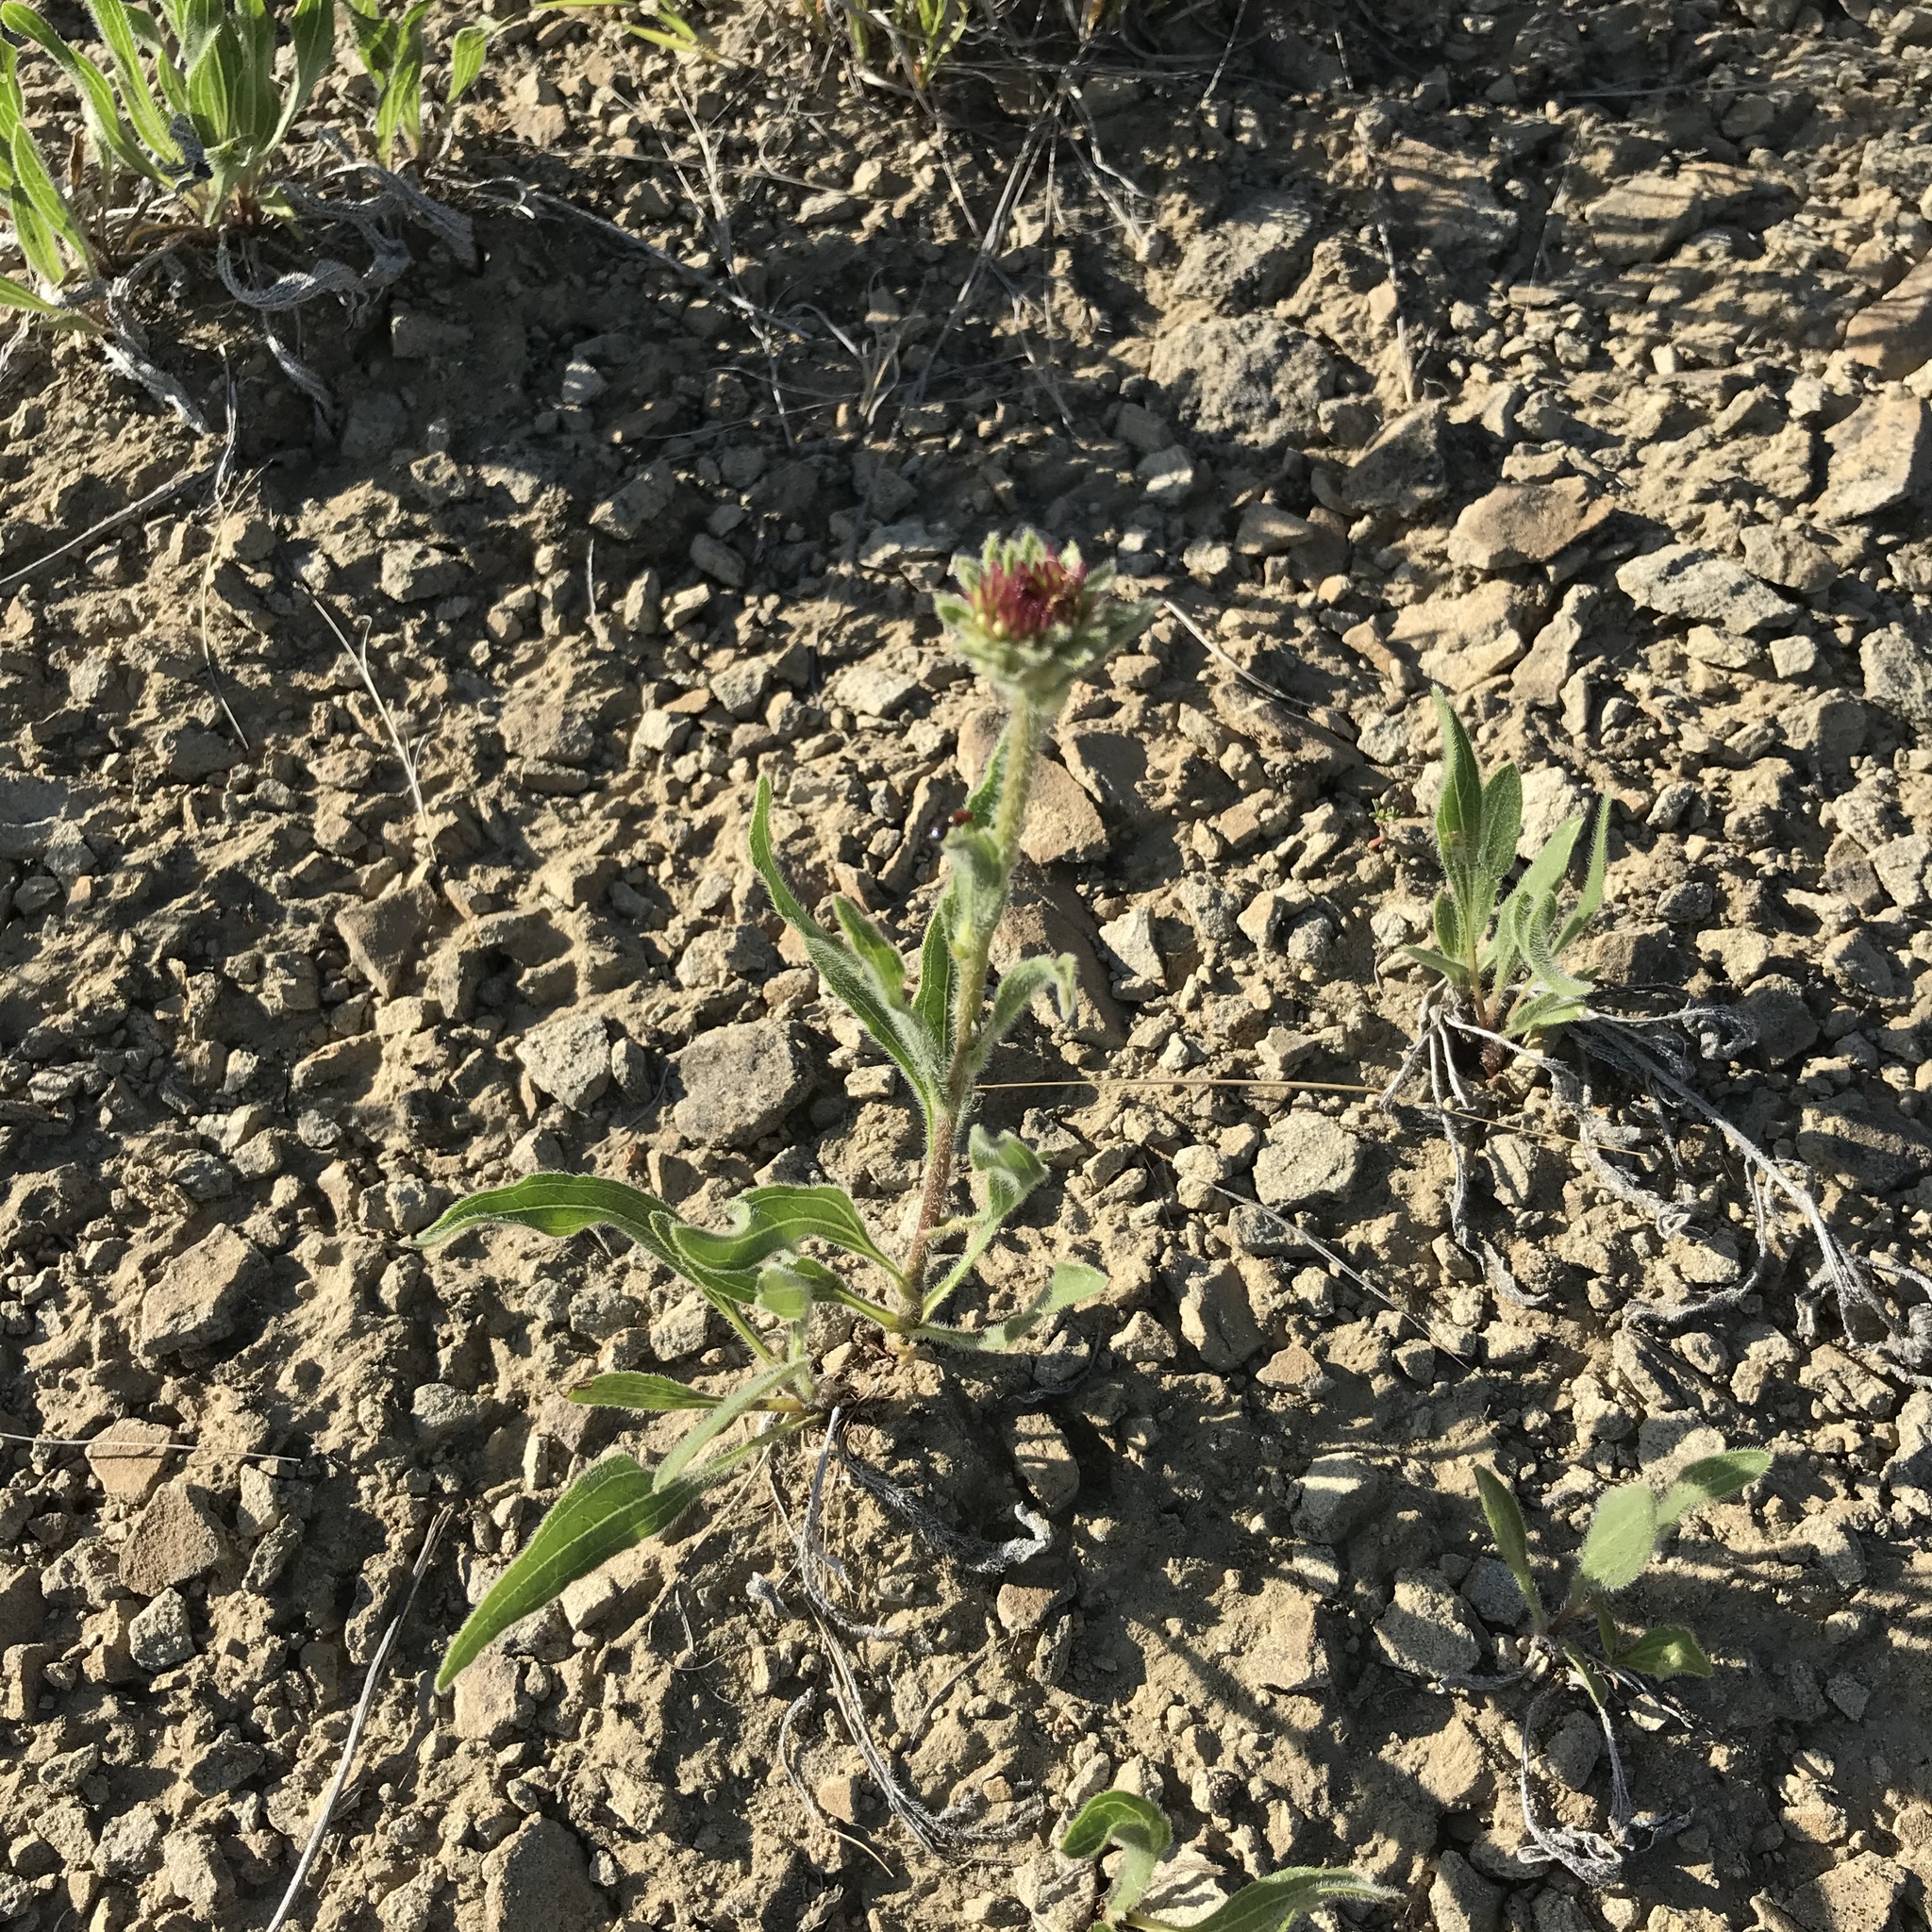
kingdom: Plantae
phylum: Tracheophyta
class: Magnoliopsida
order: Asterales
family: Asteraceae
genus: Echinacea
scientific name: Echinacea angustifolia
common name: Black-sampson echinacea
